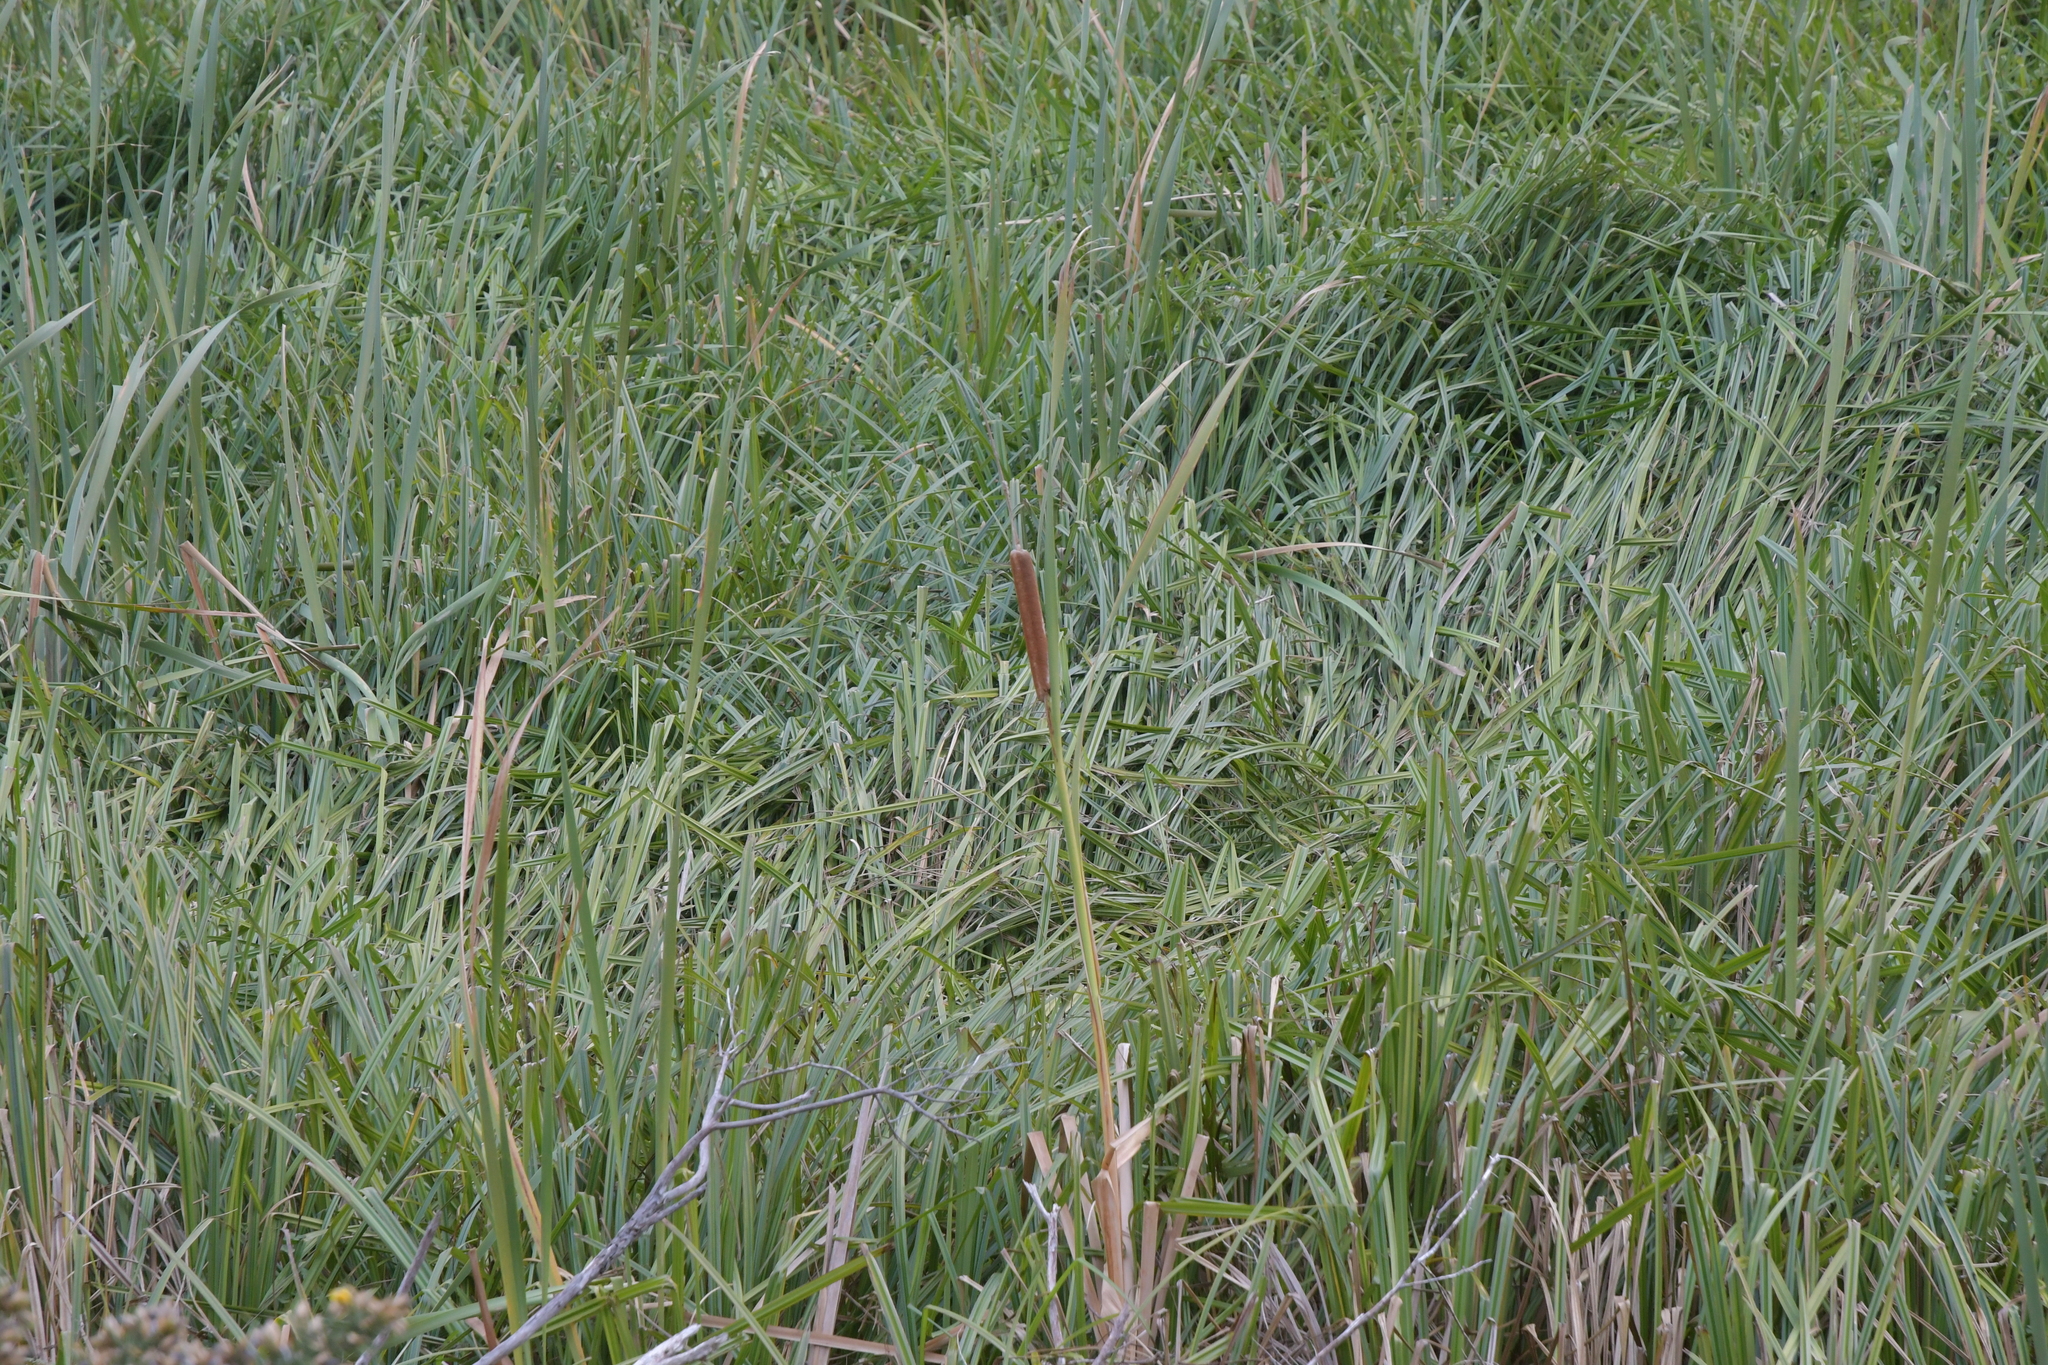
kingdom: Plantae
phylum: Tracheophyta
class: Liliopsida
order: Poales
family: Typhaceae
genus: Typha
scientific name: Typha orientalis
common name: Bullrush
